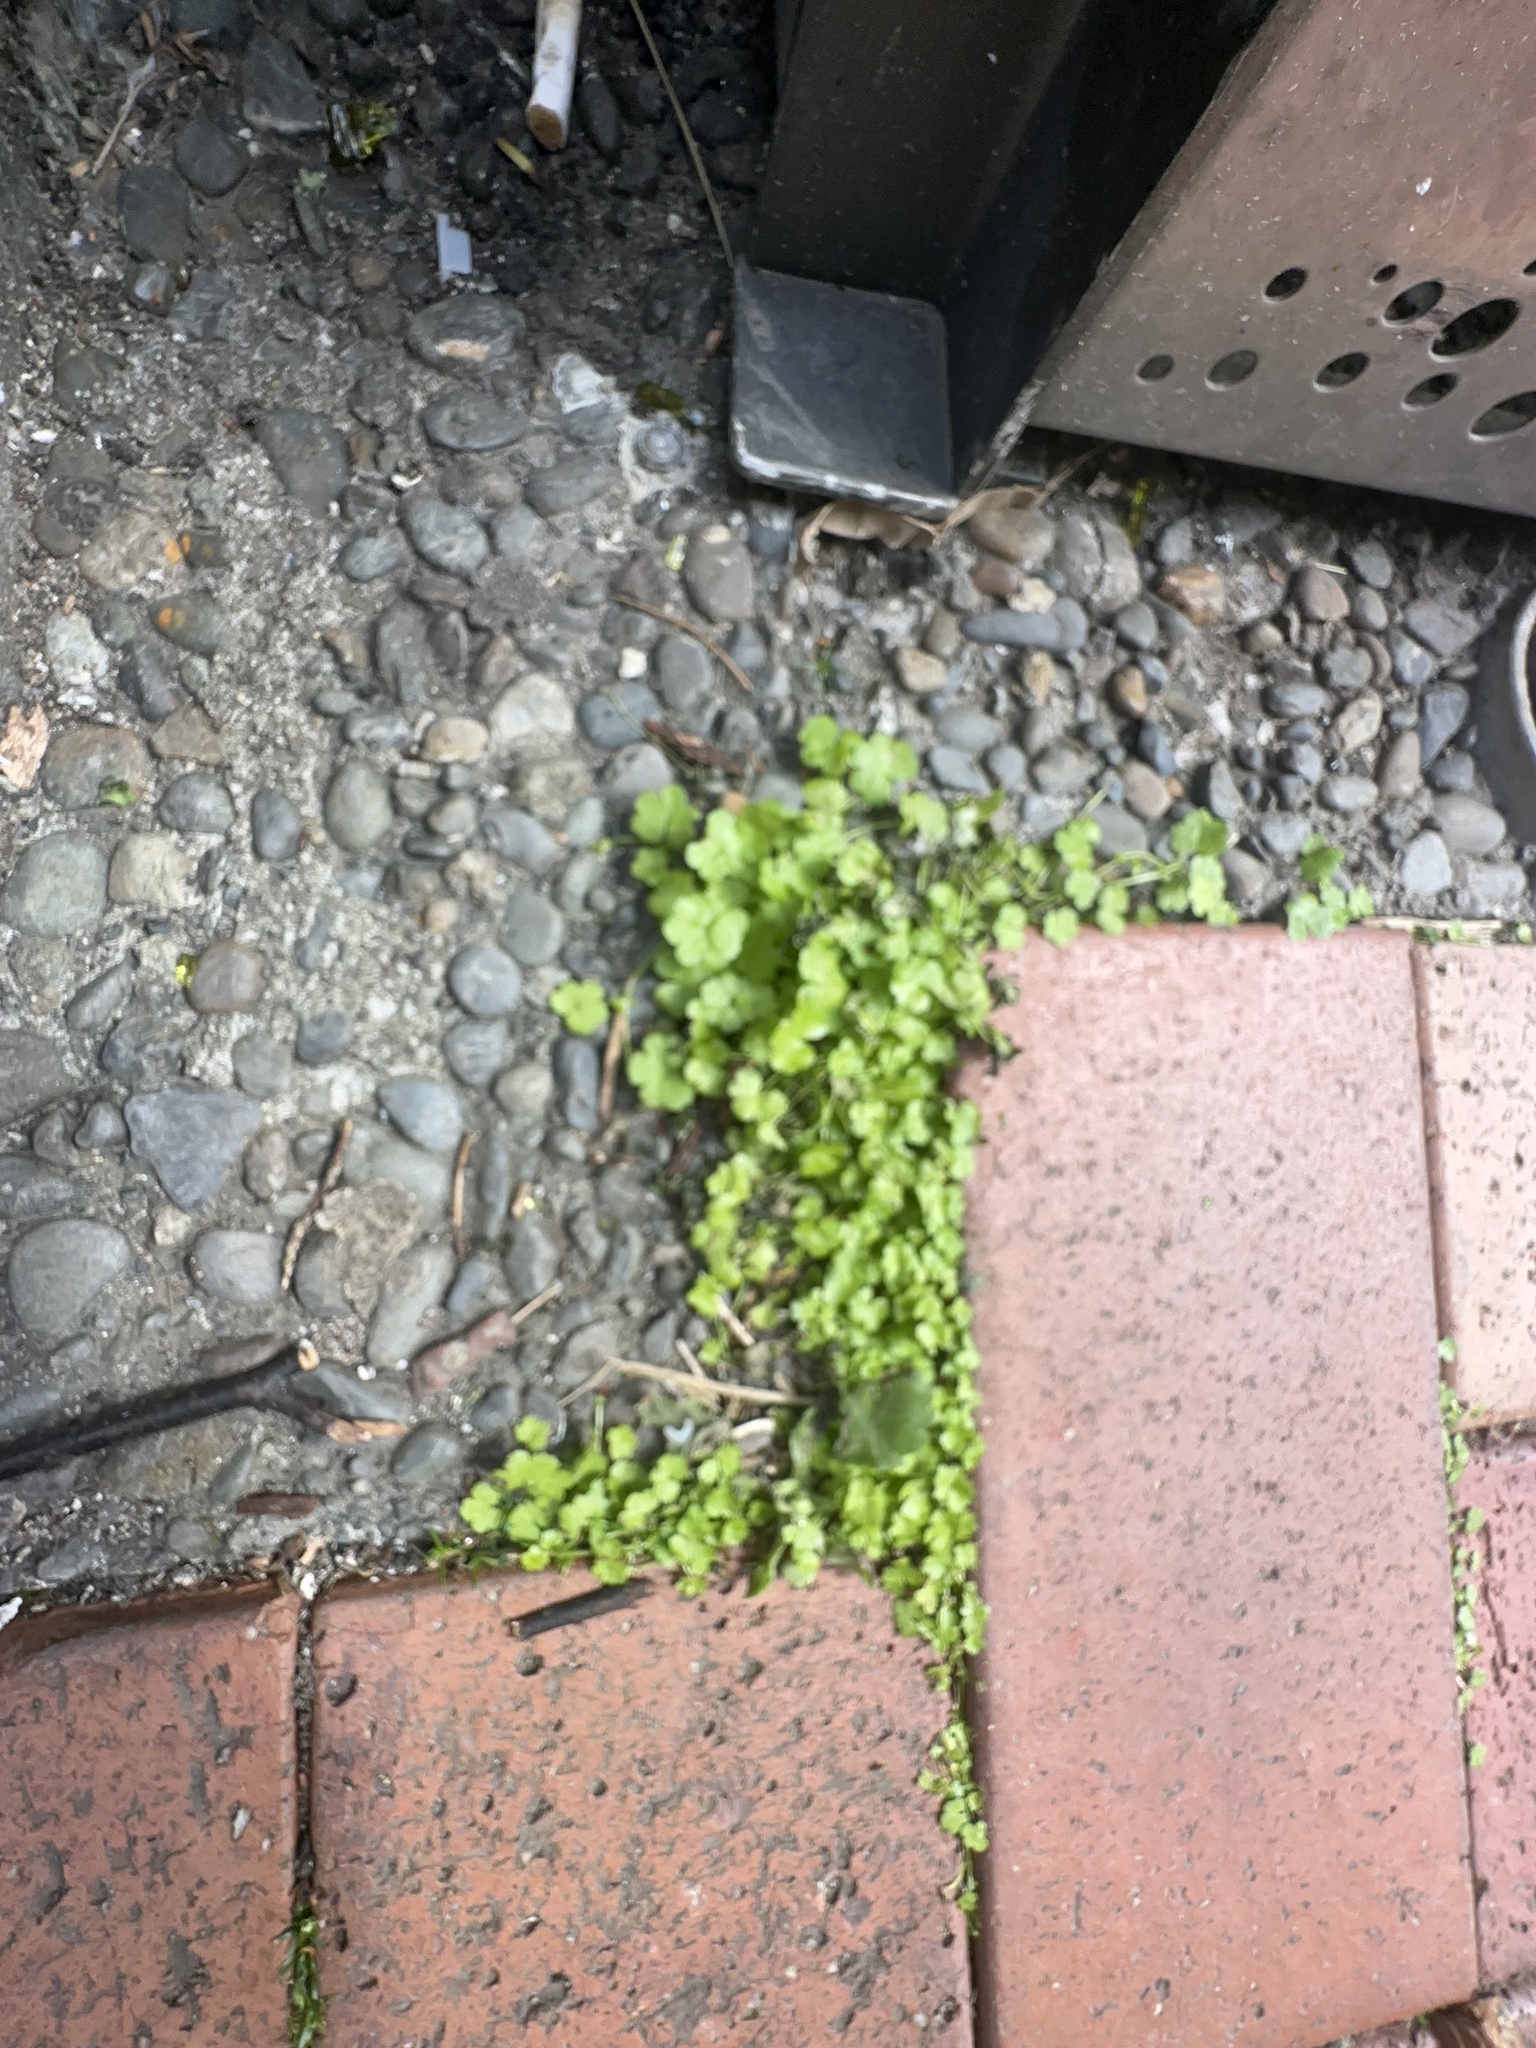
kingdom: Plantae
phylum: Tracheophyta
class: Magnoliopsida
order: Apiales
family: Araliaceae
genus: Hydrocotyle
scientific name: Hydrocotyle heteromeria
